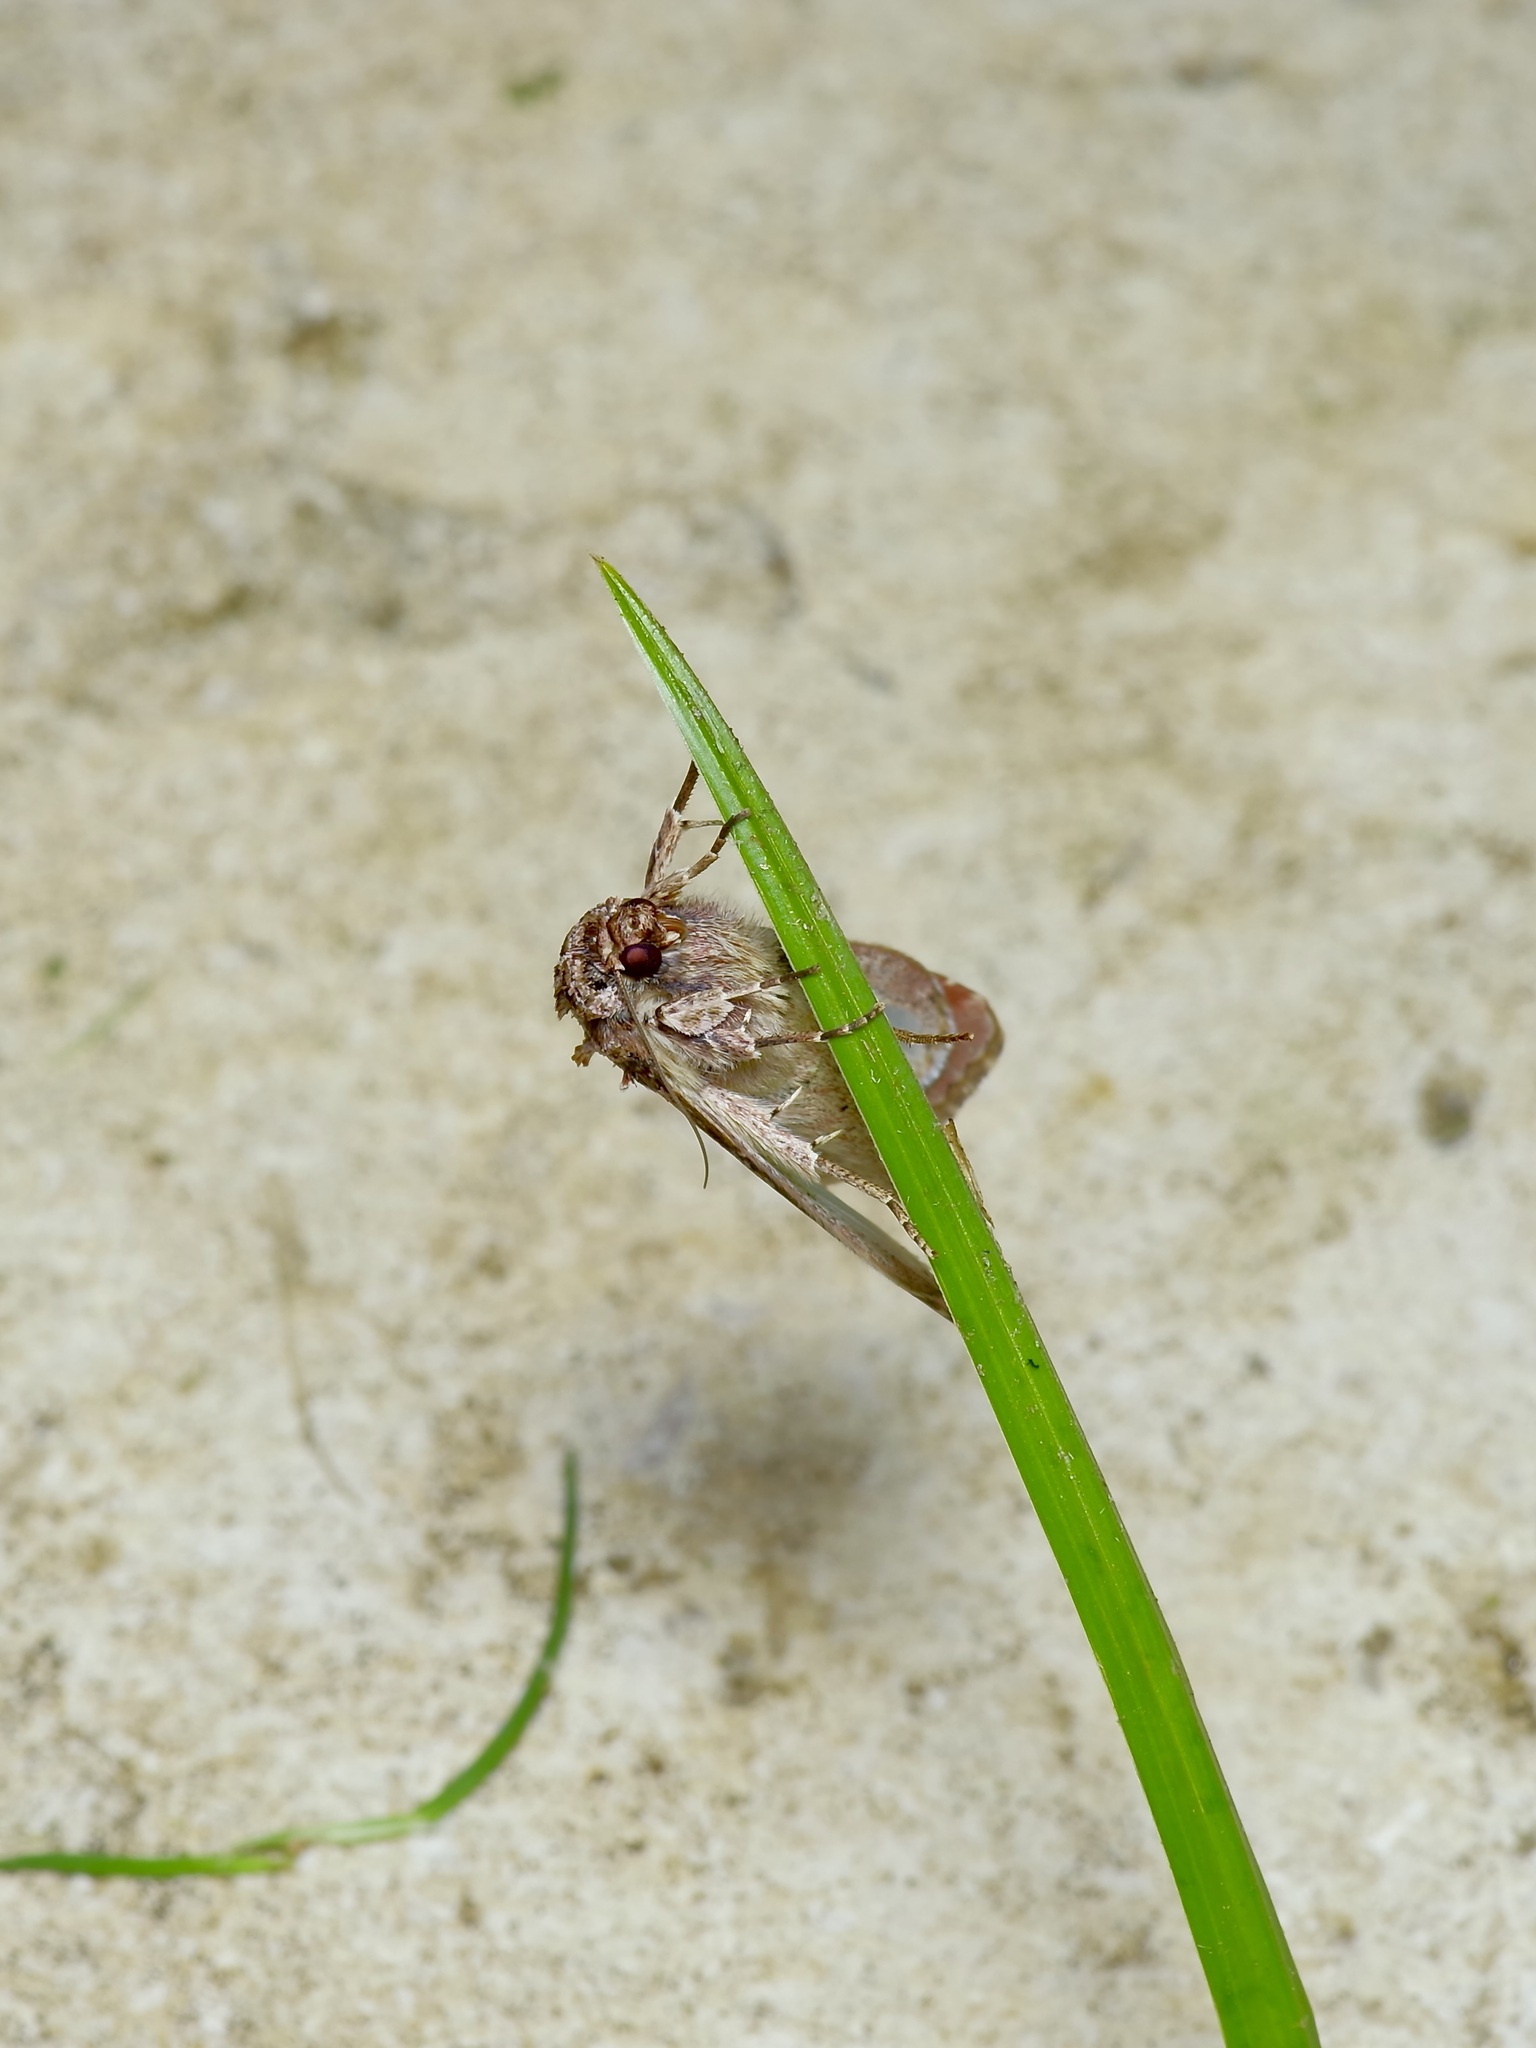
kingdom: Animalia
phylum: Arthropoda
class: Insecta
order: Lepidoptera
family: Noctuidae
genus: Spodoptera
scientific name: Spodoptera ornithogalli
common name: Yellow-striped armyworm
